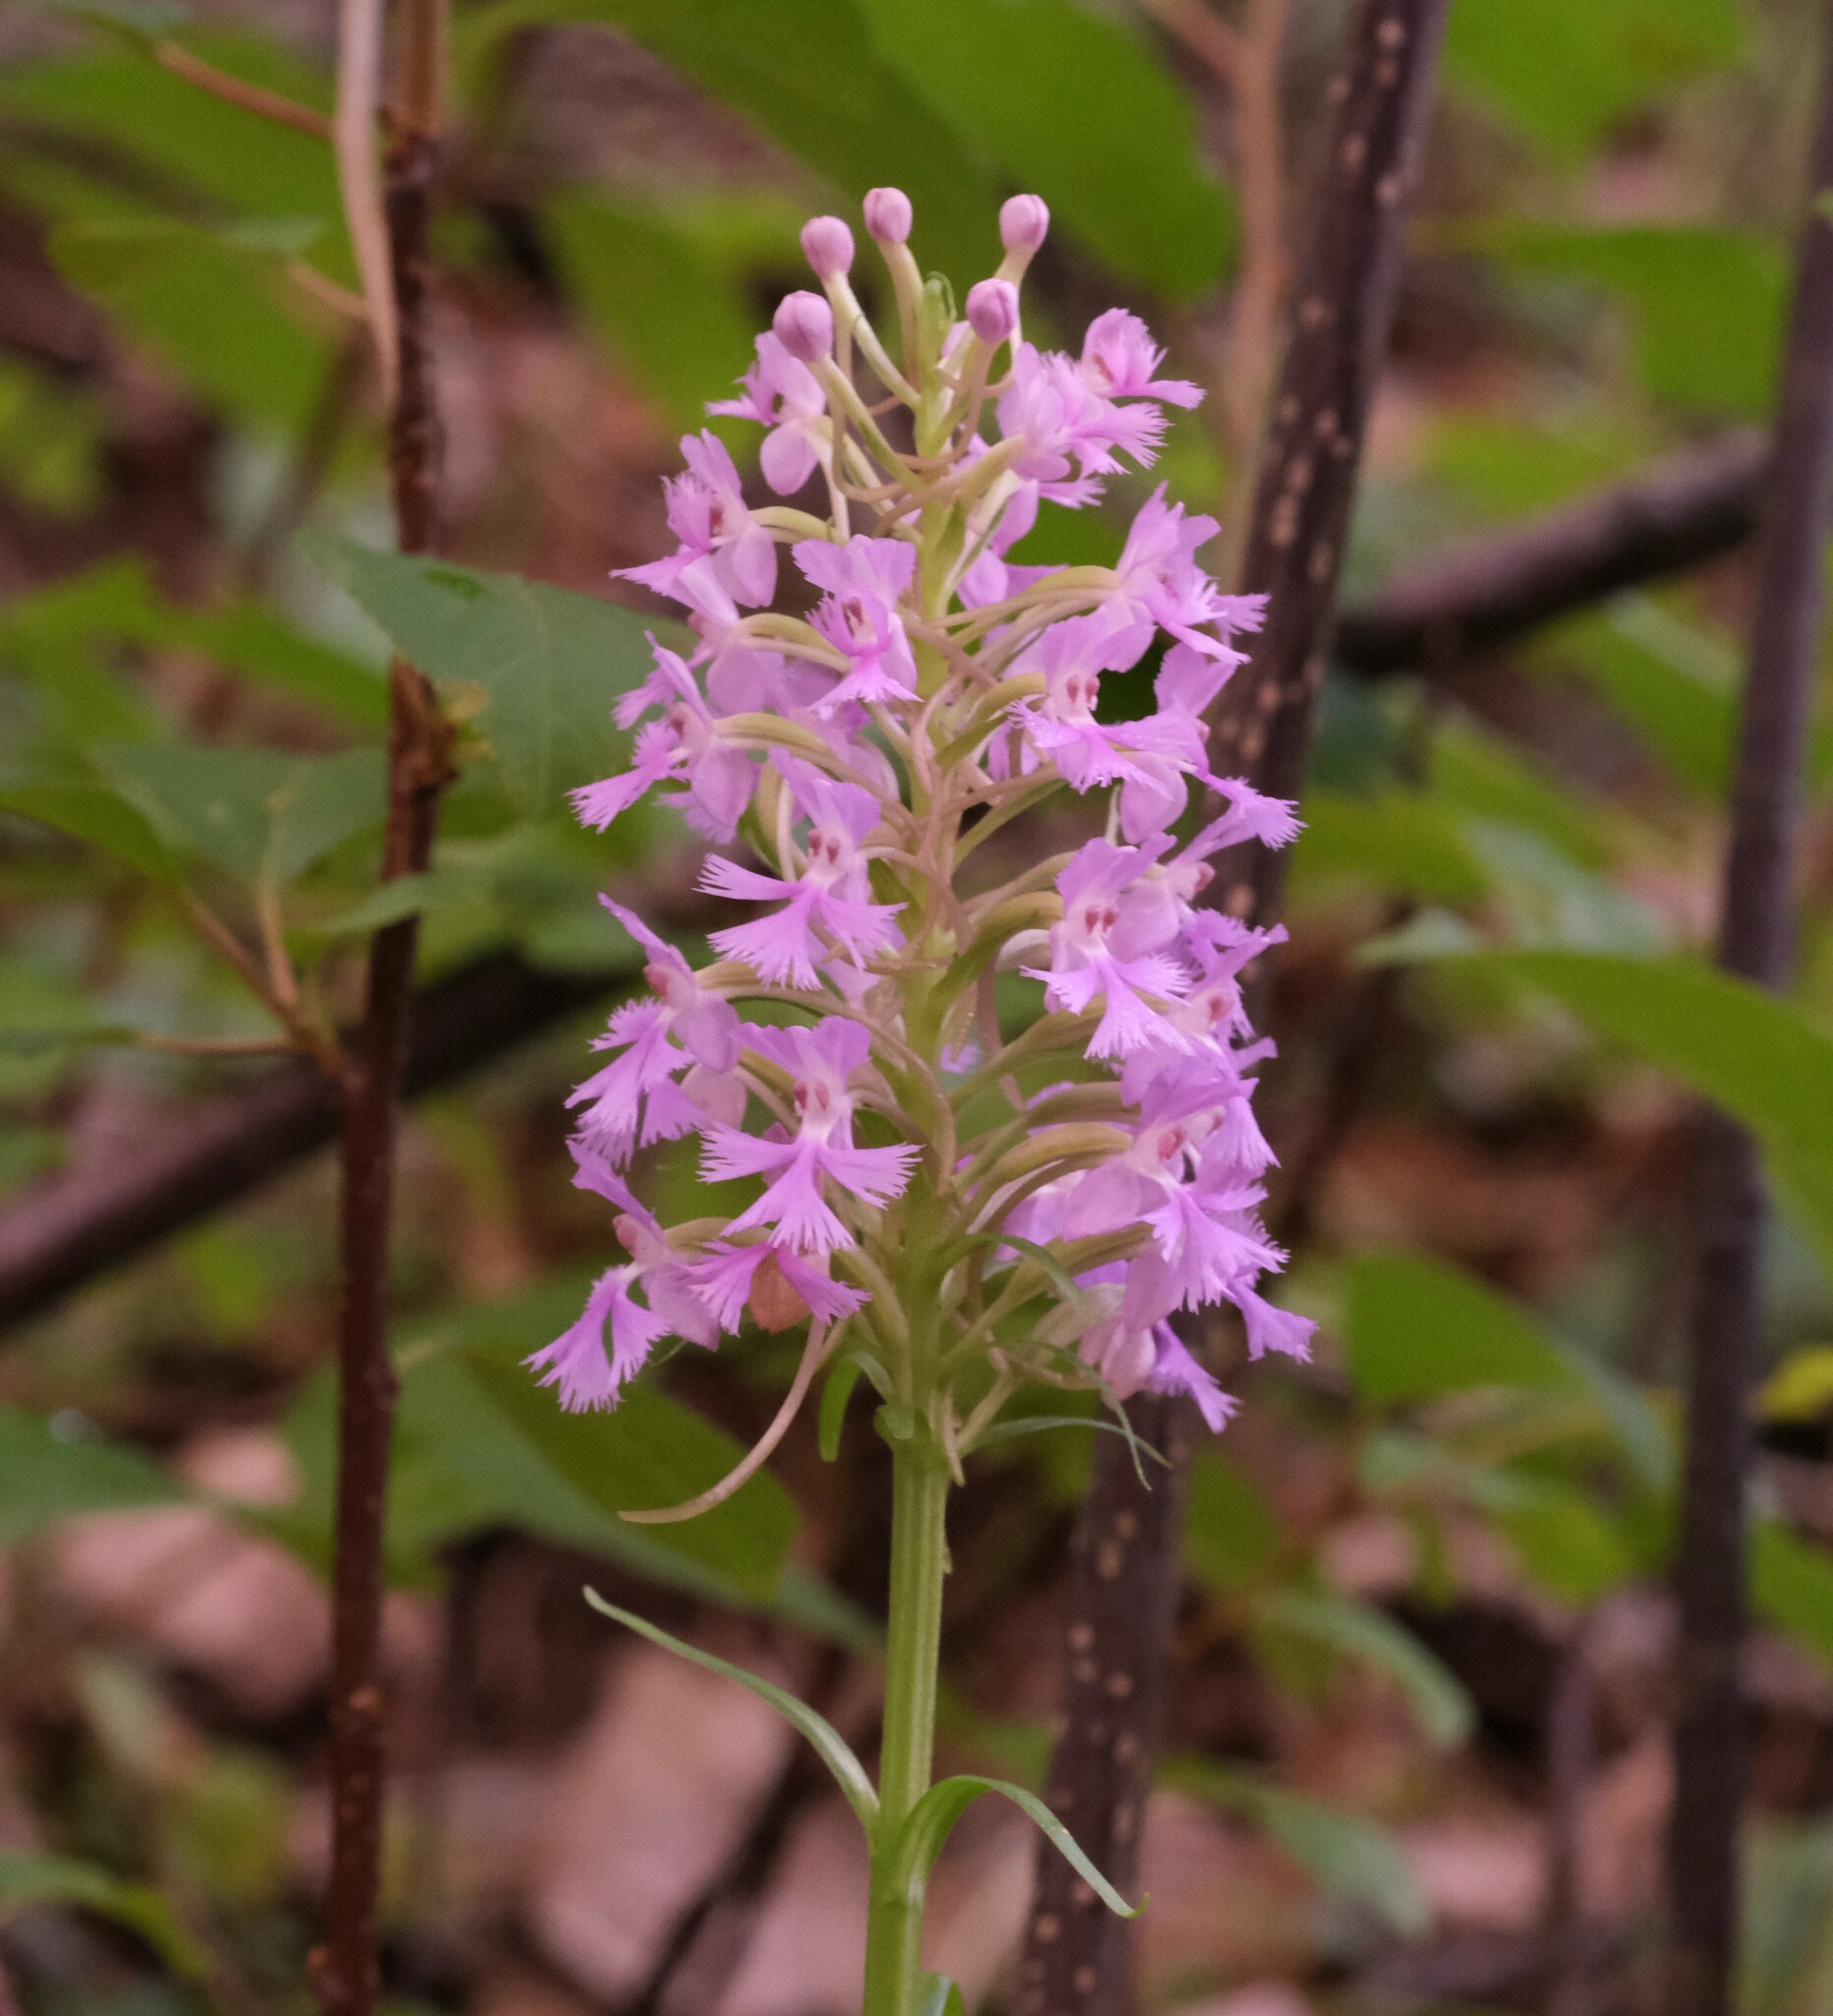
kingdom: Plantae
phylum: Tracheophyta
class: Liliopsida
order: Asparagales
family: Orchidaceae
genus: Platanthera
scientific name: Platanthera psycodes
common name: Lesser purple fringed orchid
